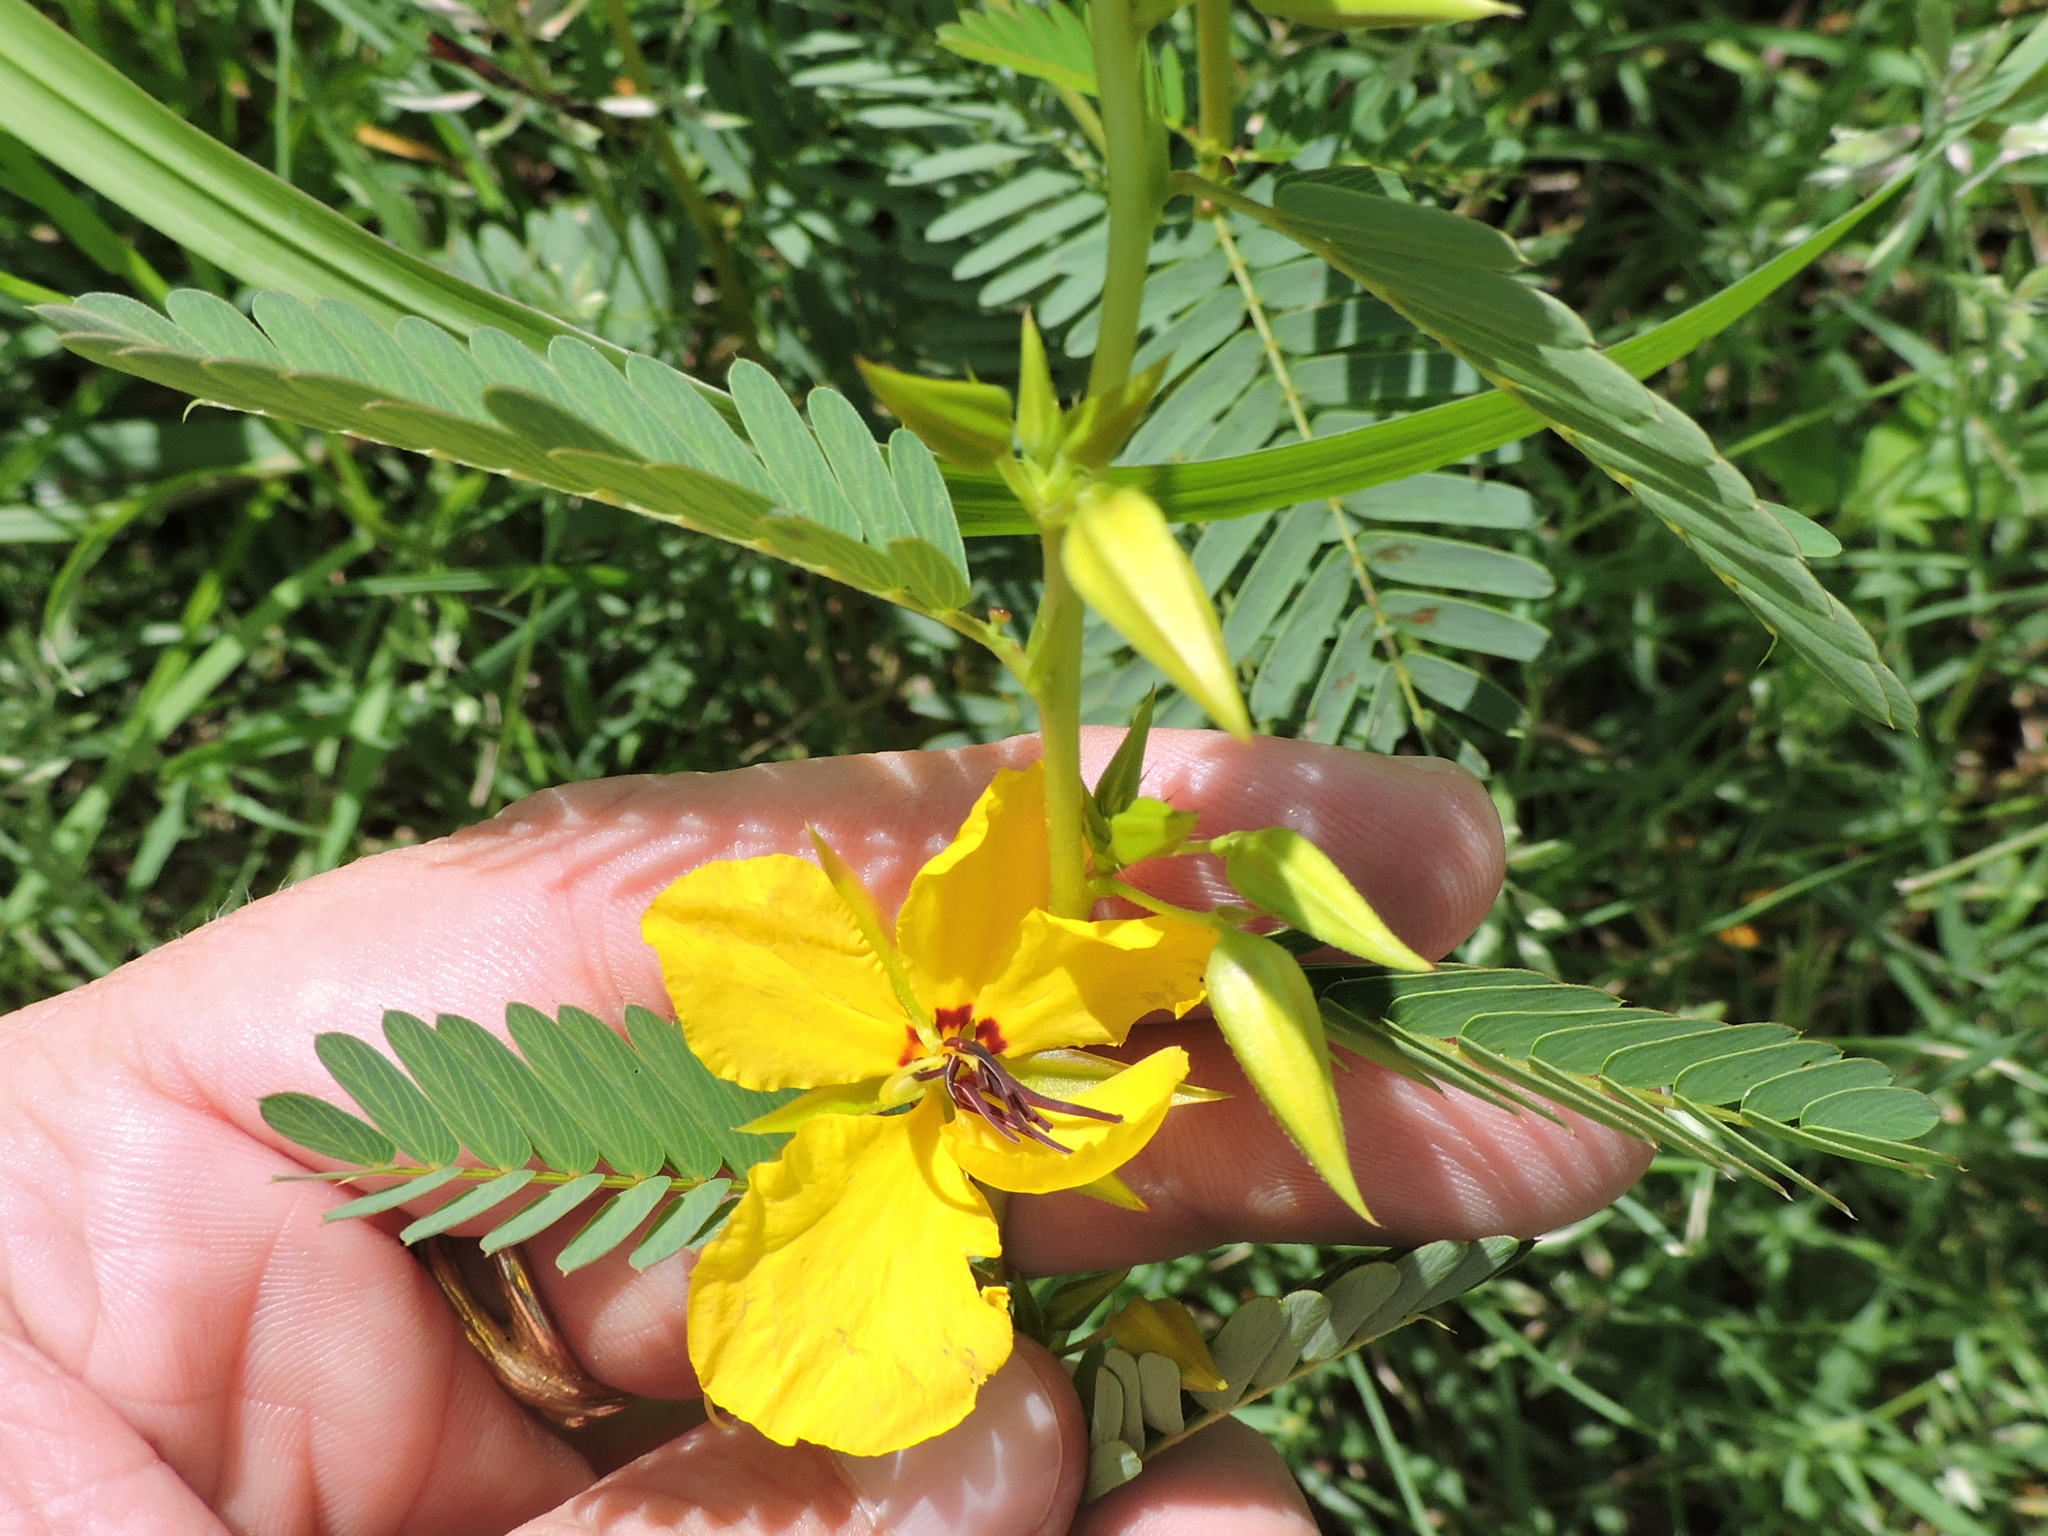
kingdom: Plantae
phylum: Tracheophyta
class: Magnoliopsida
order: Fabales
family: Fabaceae
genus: Chamaecrista
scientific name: Chamaecrista fasciculata
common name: Golden cassia
